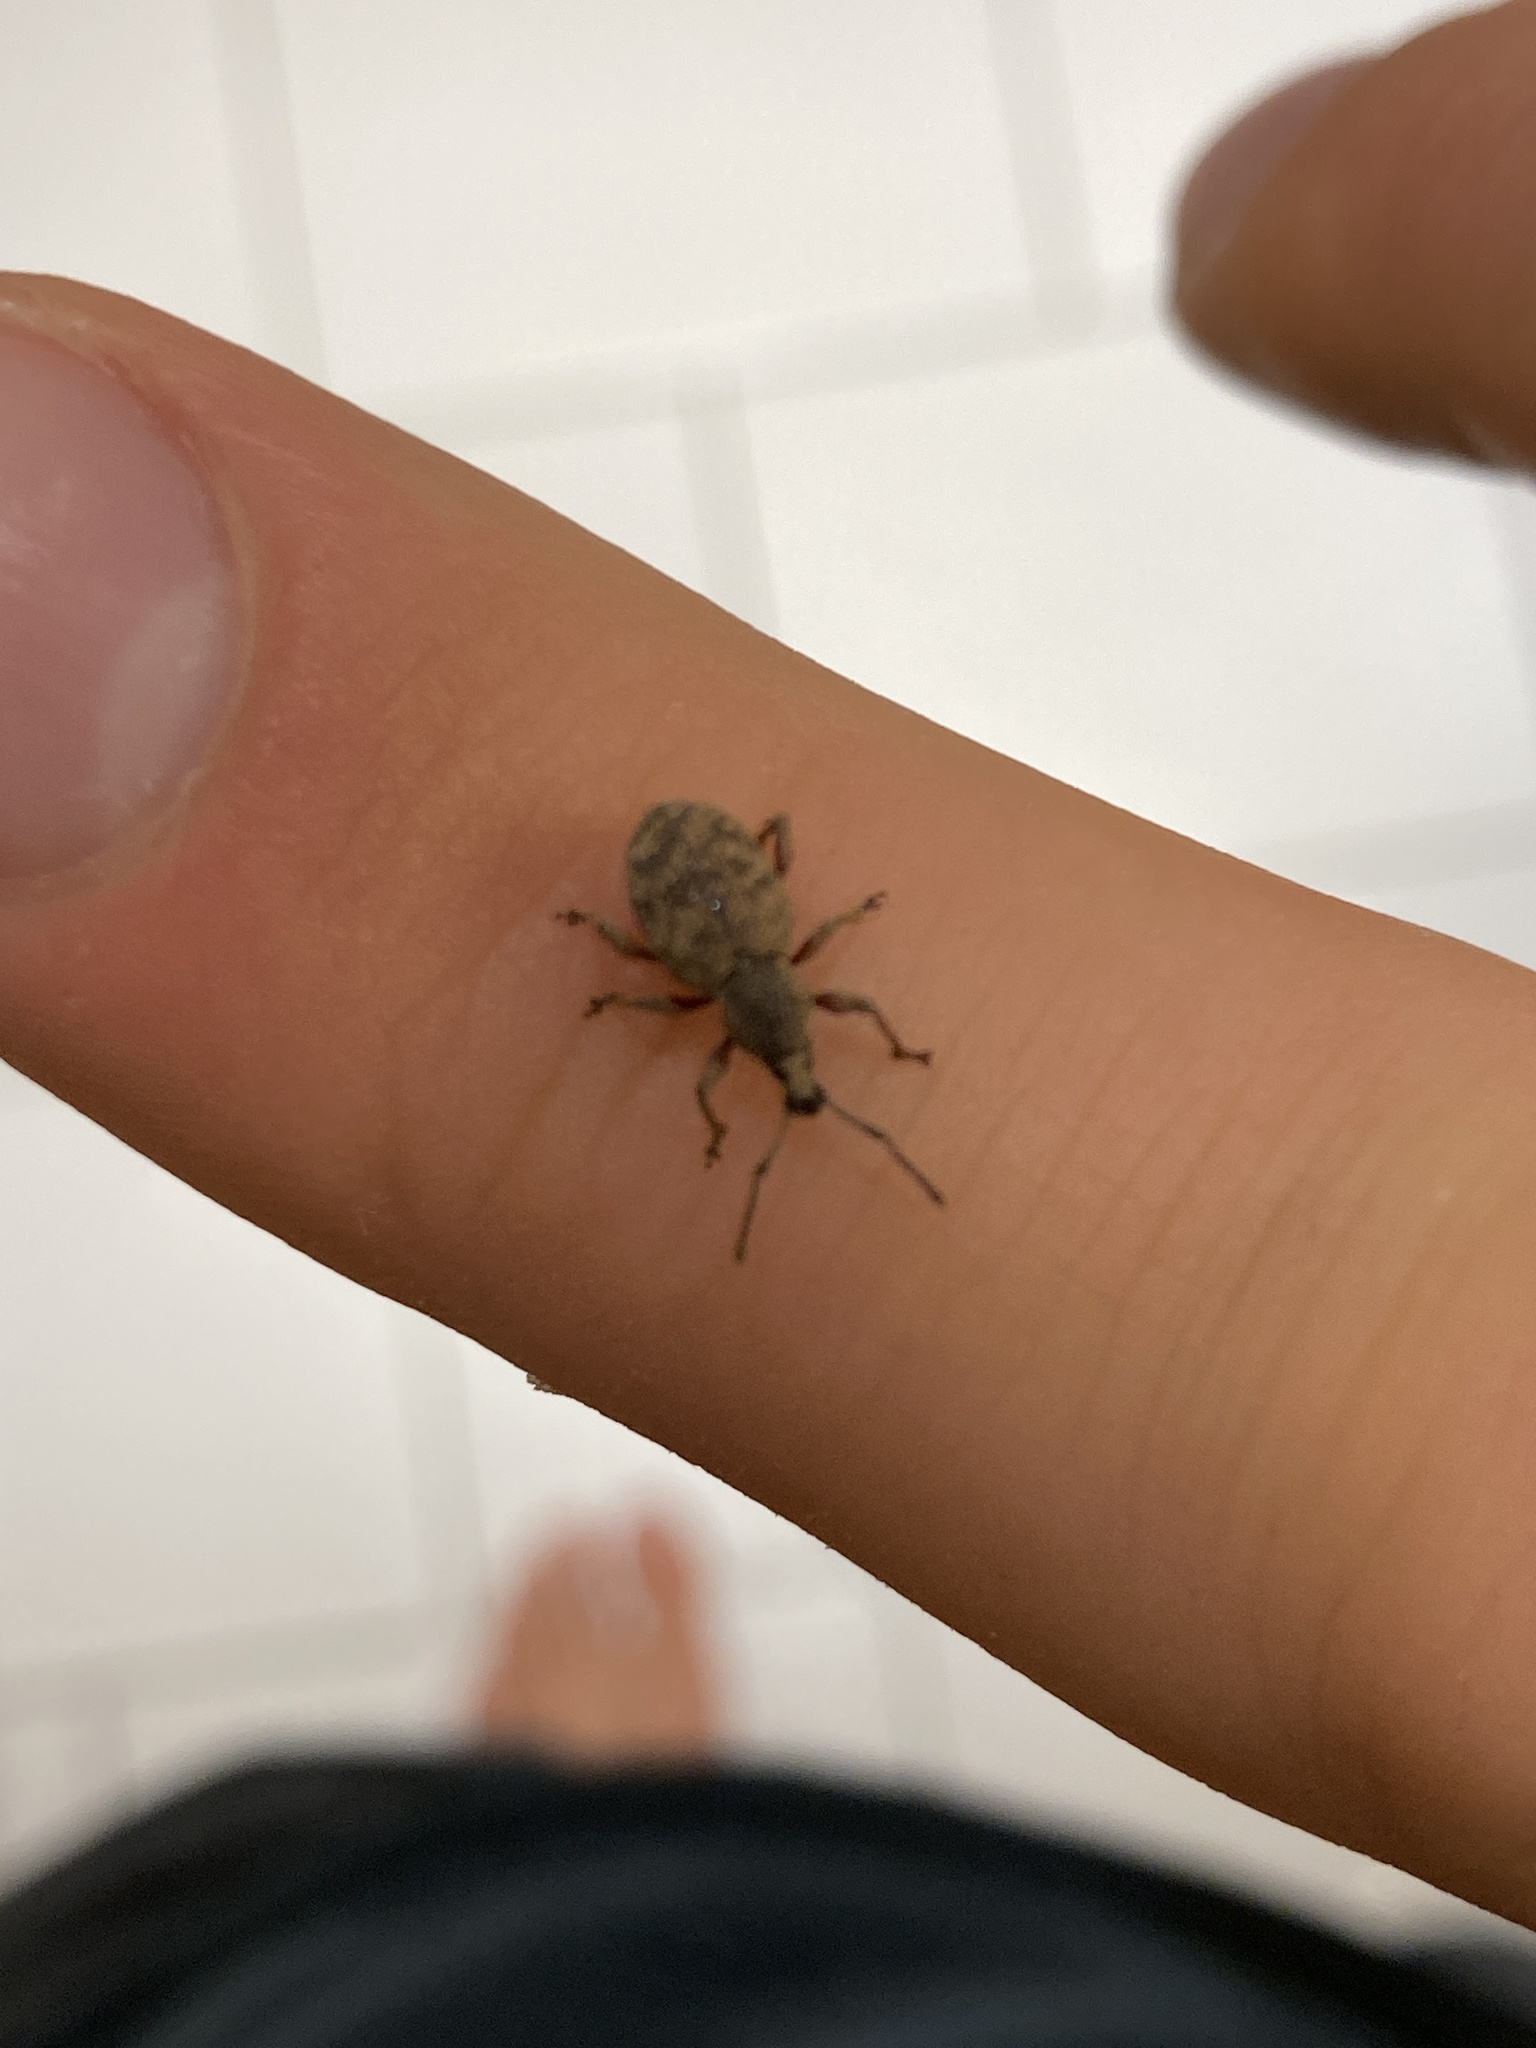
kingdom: Animalia
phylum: Arthropoda
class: Insecta
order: Coleoptera
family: Curculionidae
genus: Otiorhynchus
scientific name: Otiorhynchus singularis
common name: Clay-coloured weevil
